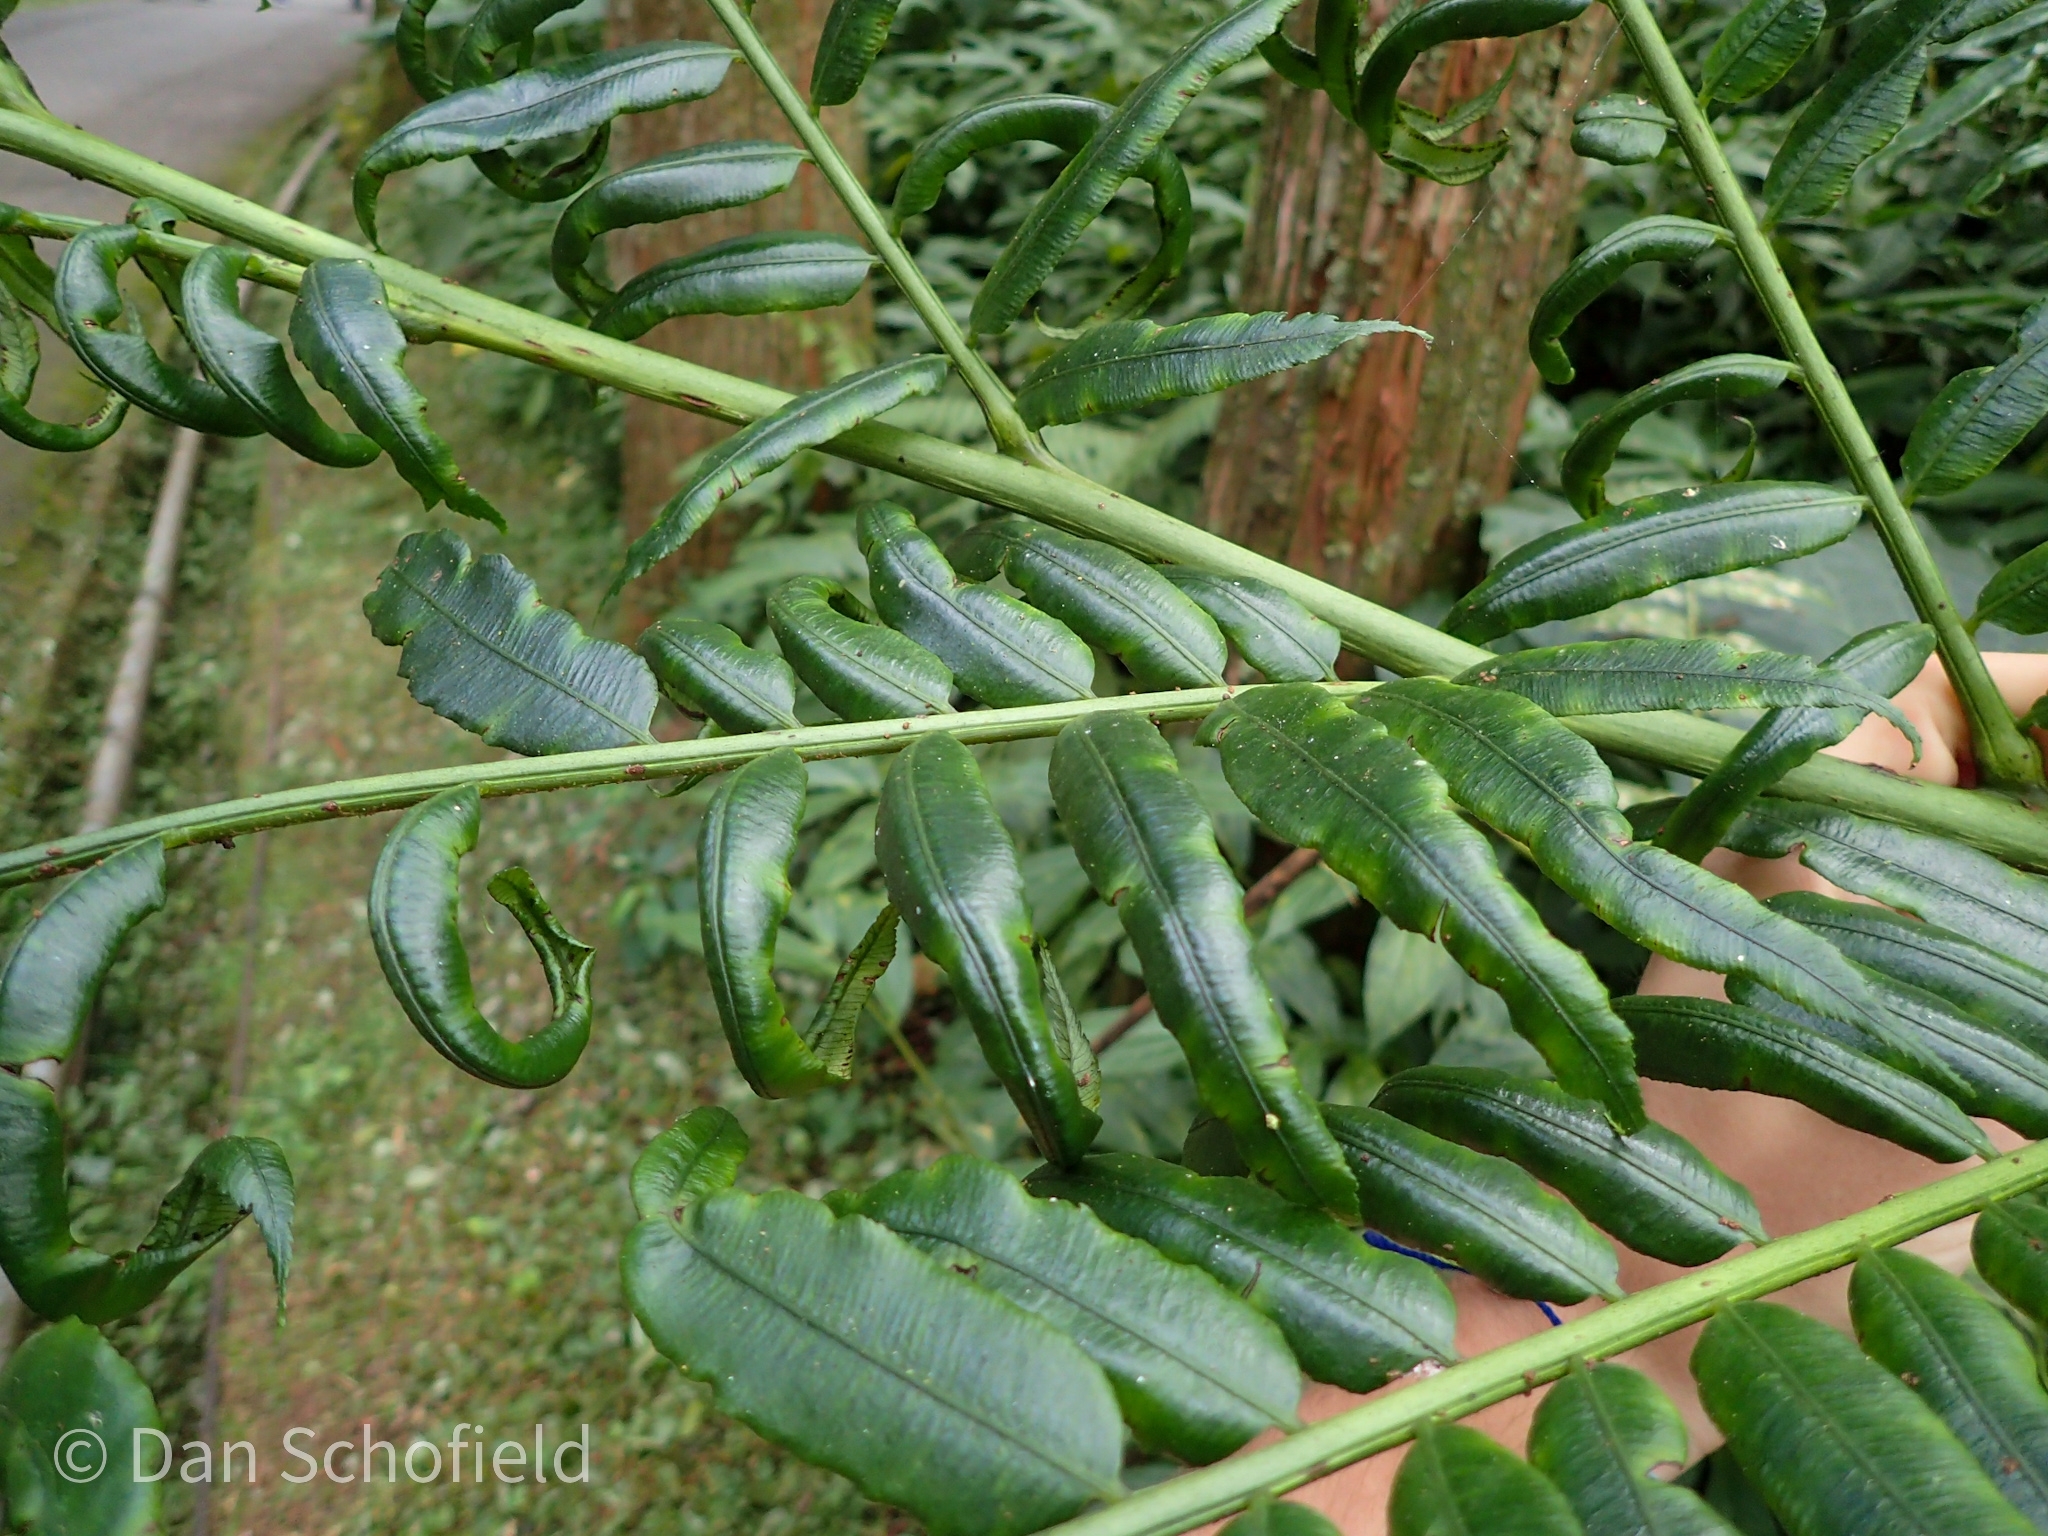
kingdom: Plantae
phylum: Tracheophyta
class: Polypodiopsida
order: Marattiales
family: Marattiaceae
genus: Angiopteris
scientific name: Angiopteris lygodiifolia
